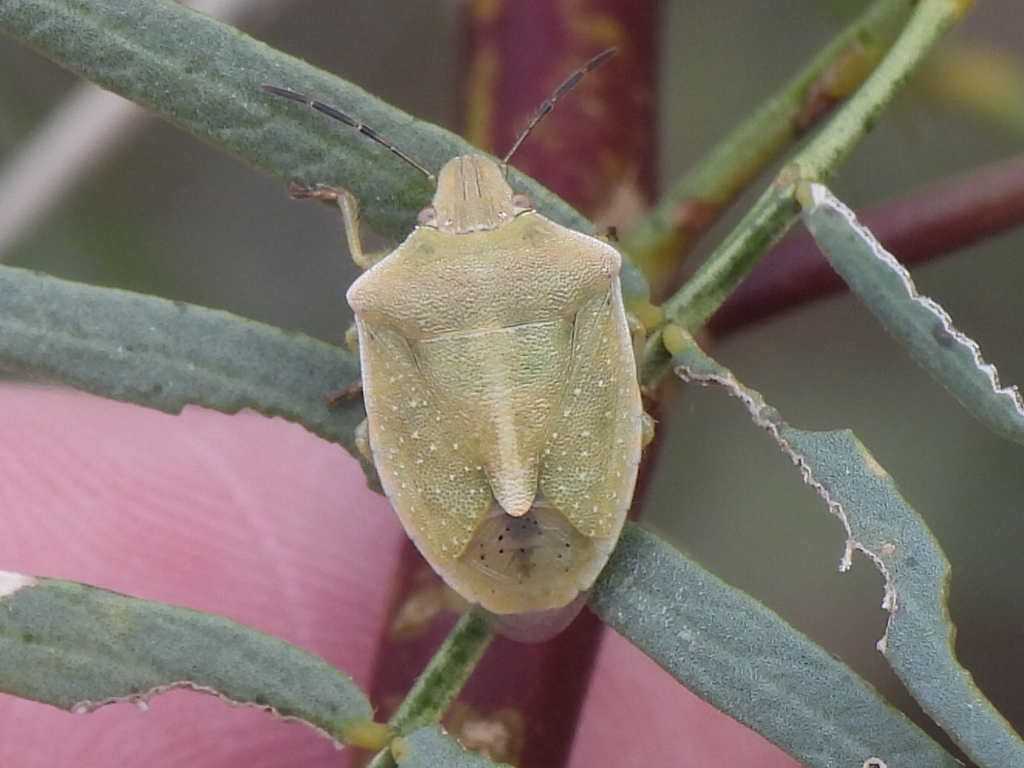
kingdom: Animalia
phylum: Arthropoda
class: Insecta
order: Hemiptera
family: Pentatomidae
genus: Thyanta
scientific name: Thyanta accerra
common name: Stink bug
